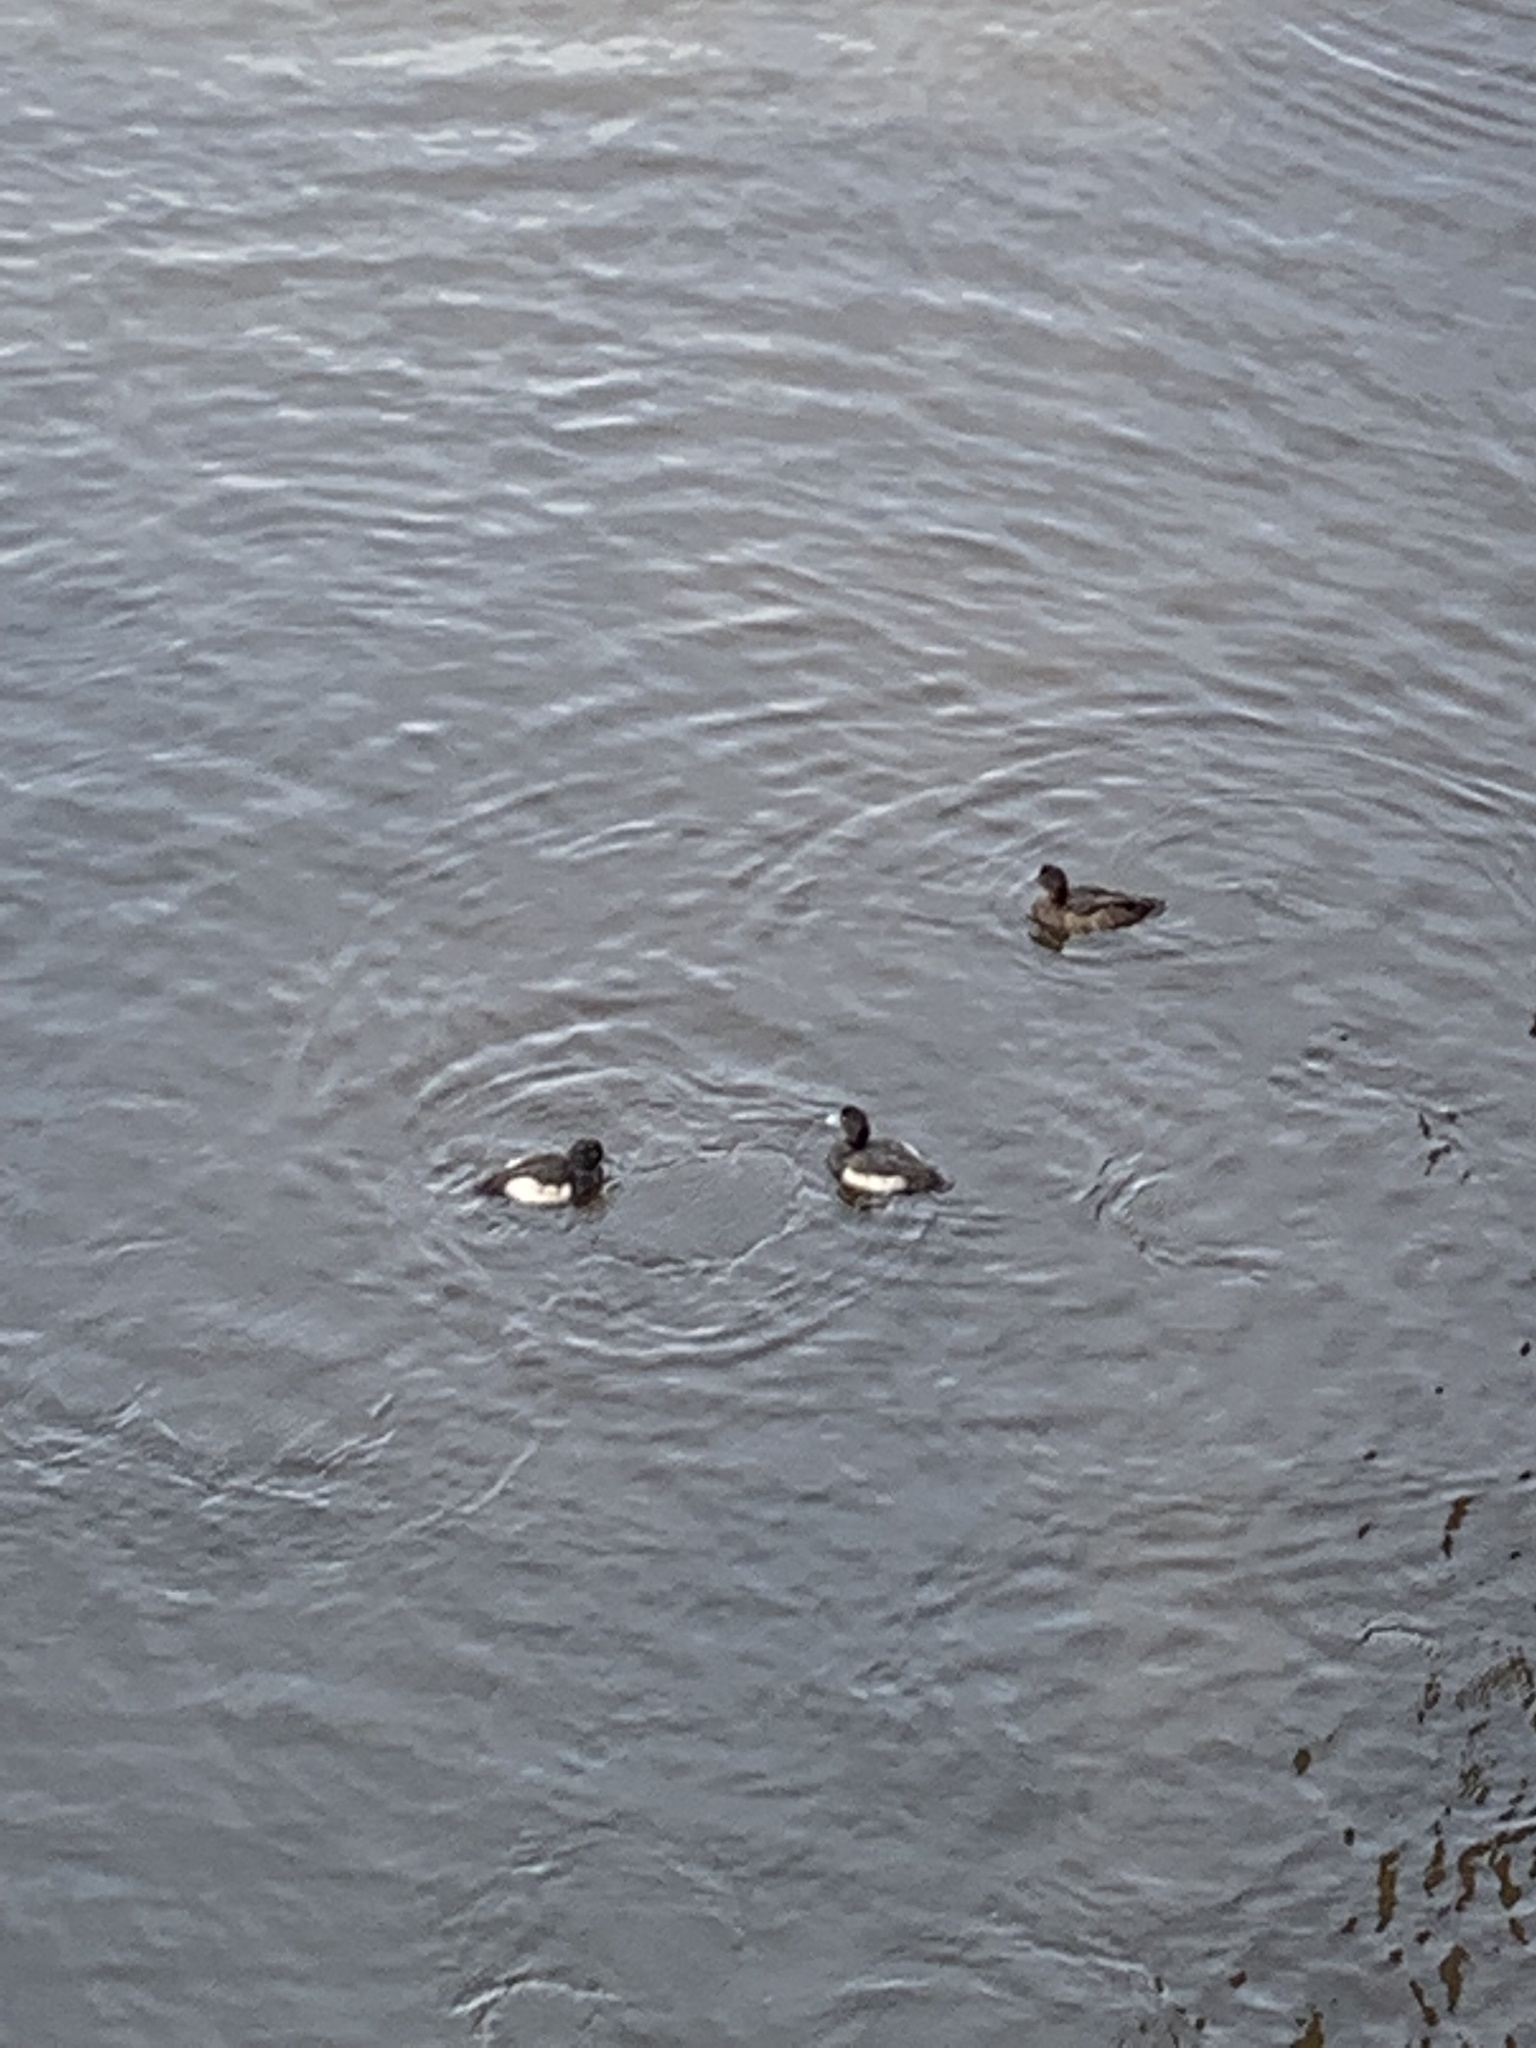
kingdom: Animalia
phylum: Chordata
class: Aves
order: Anseriformes
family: Anatidae
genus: Aythya
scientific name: Aythya fuligula
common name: Tufted duck
